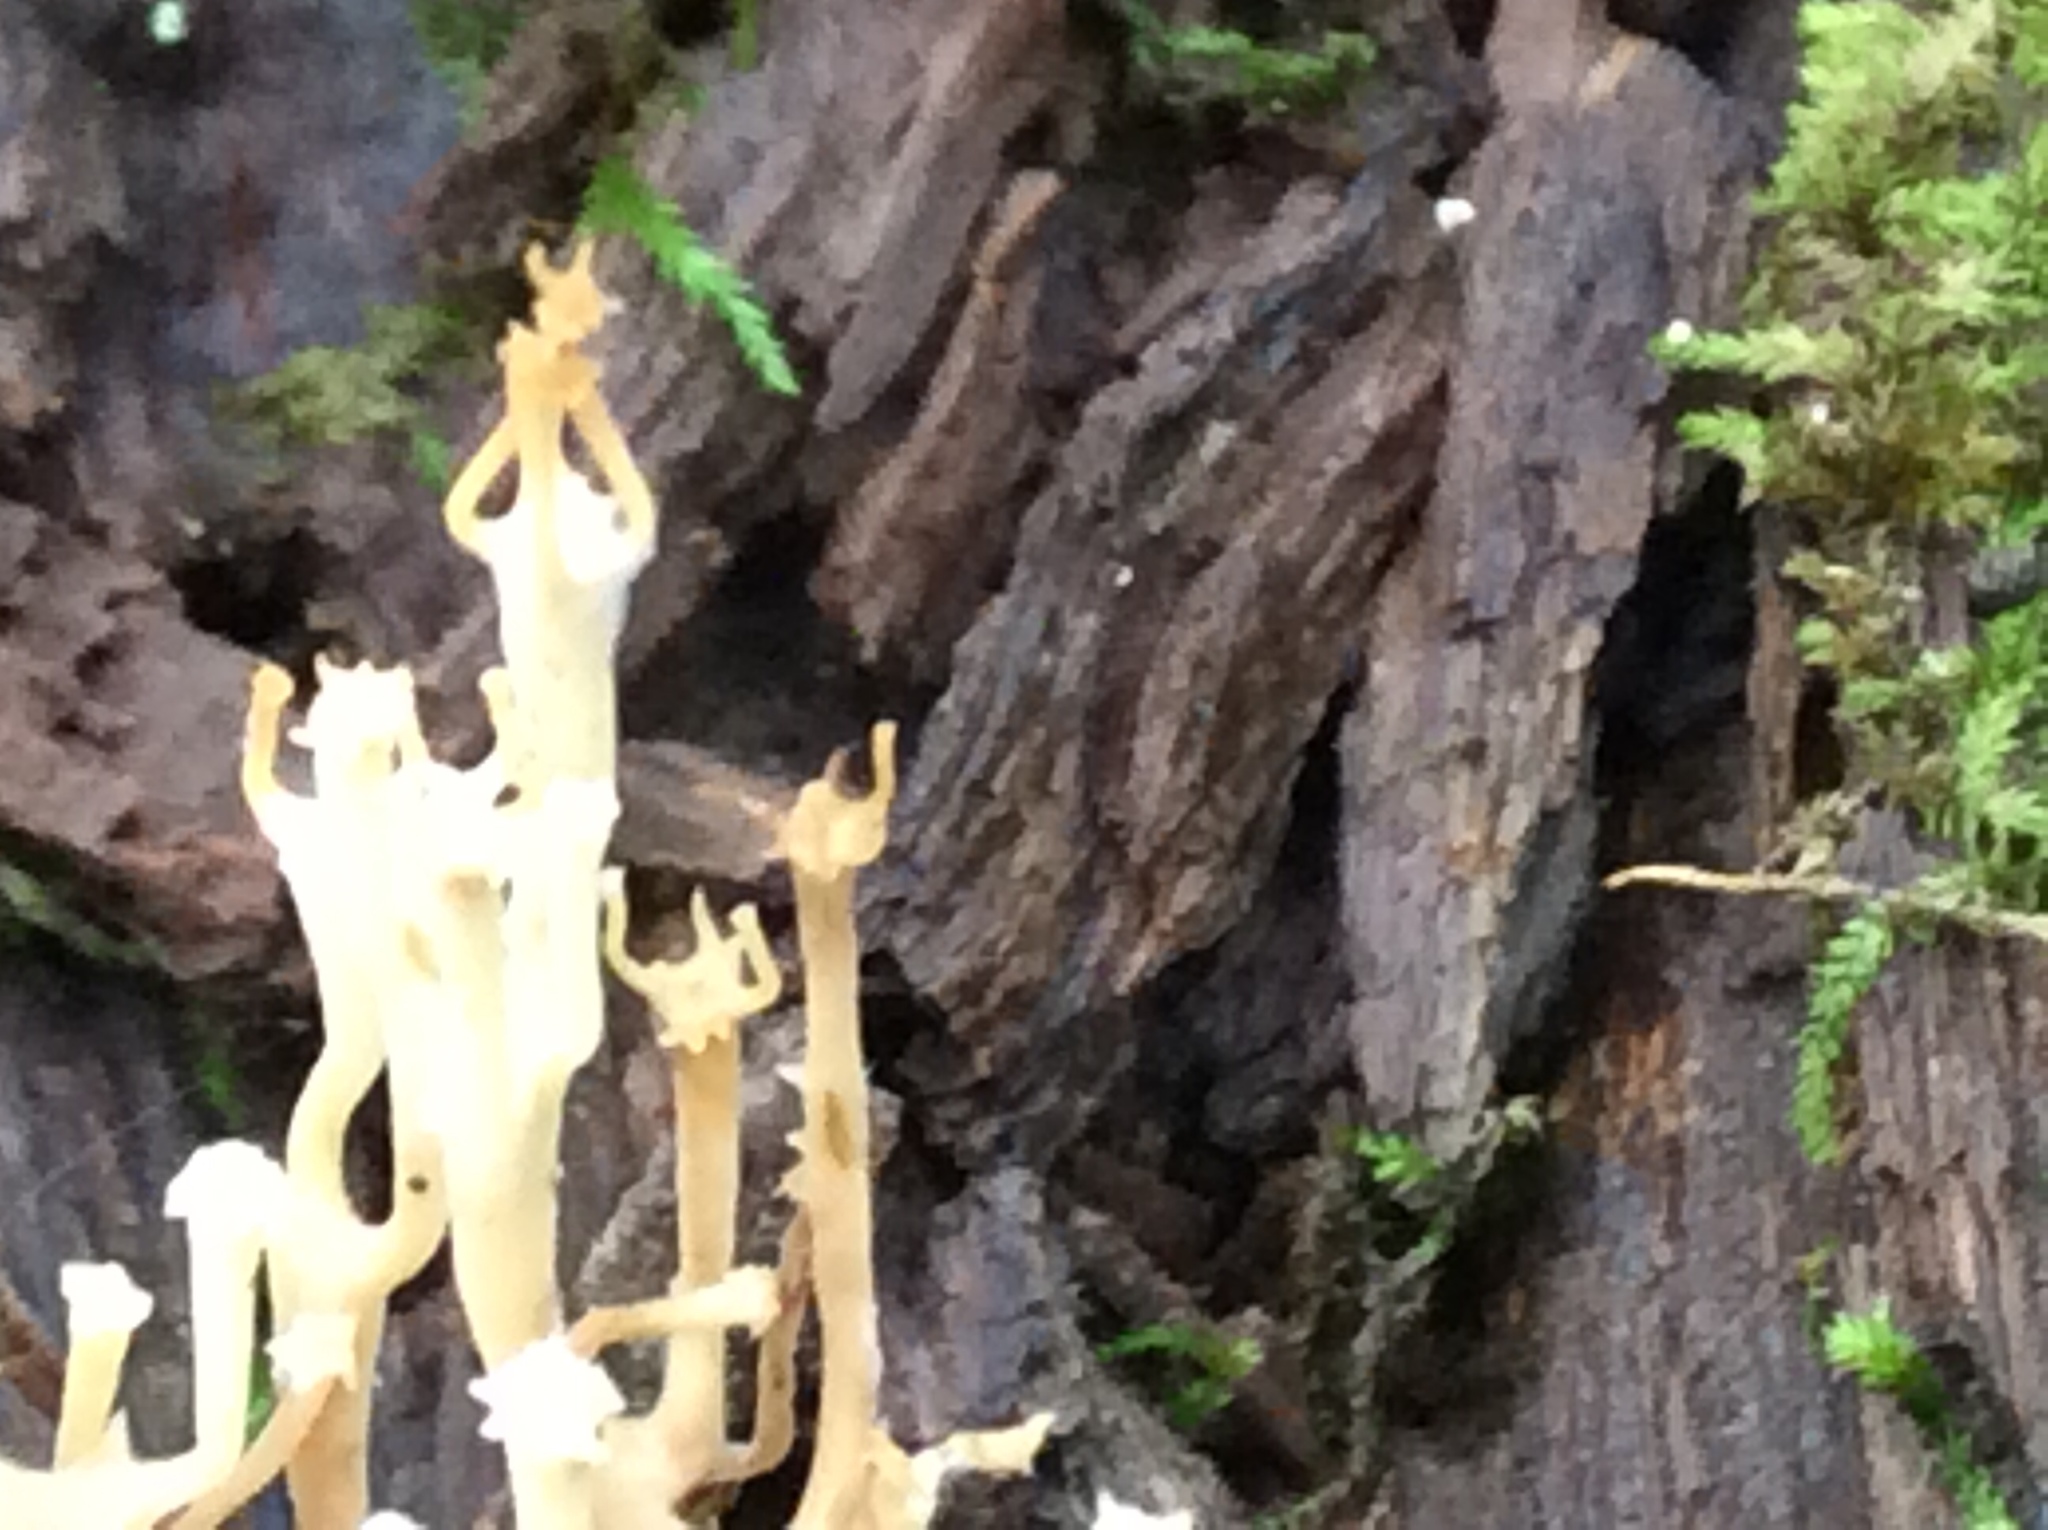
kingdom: Fungi
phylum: Basidiomycota
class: Agaricomycetes
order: Russulales
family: Auriscalpiaceae
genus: Artomyces
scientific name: Artomyces pyxidatus
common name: Crown-tipped coral fungus
